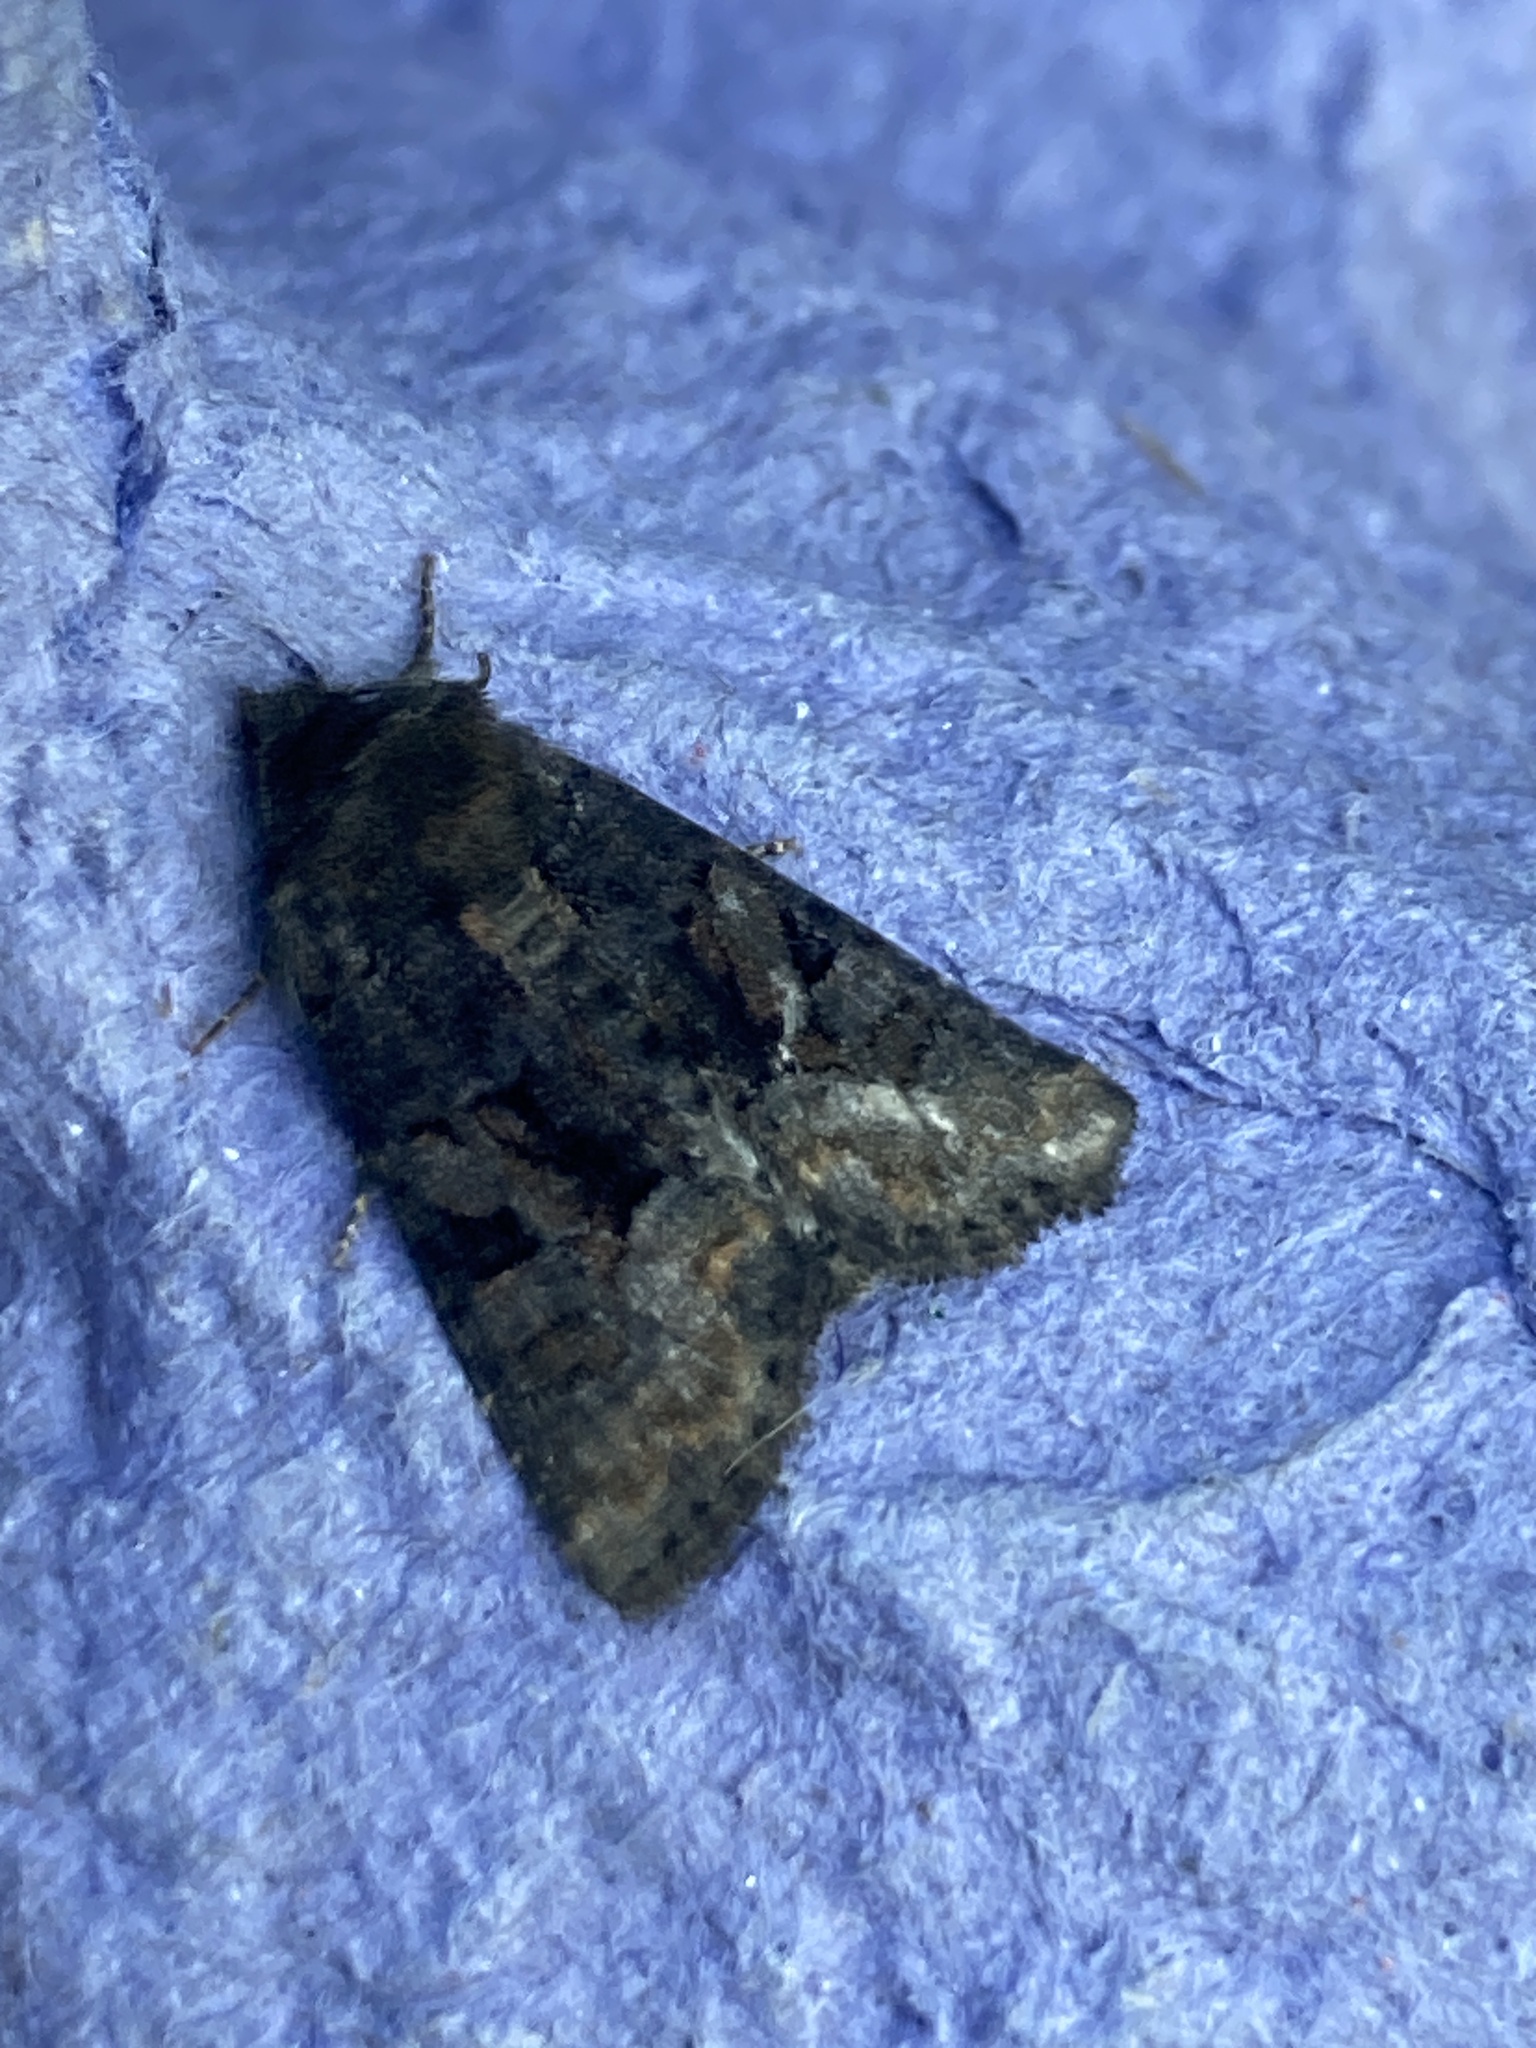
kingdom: Animalia
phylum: Arthropoda
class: Insecta
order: Lepidoptera
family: Noctuidae
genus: Oligia
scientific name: Oligia latruncula
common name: Tawny marbled minor
